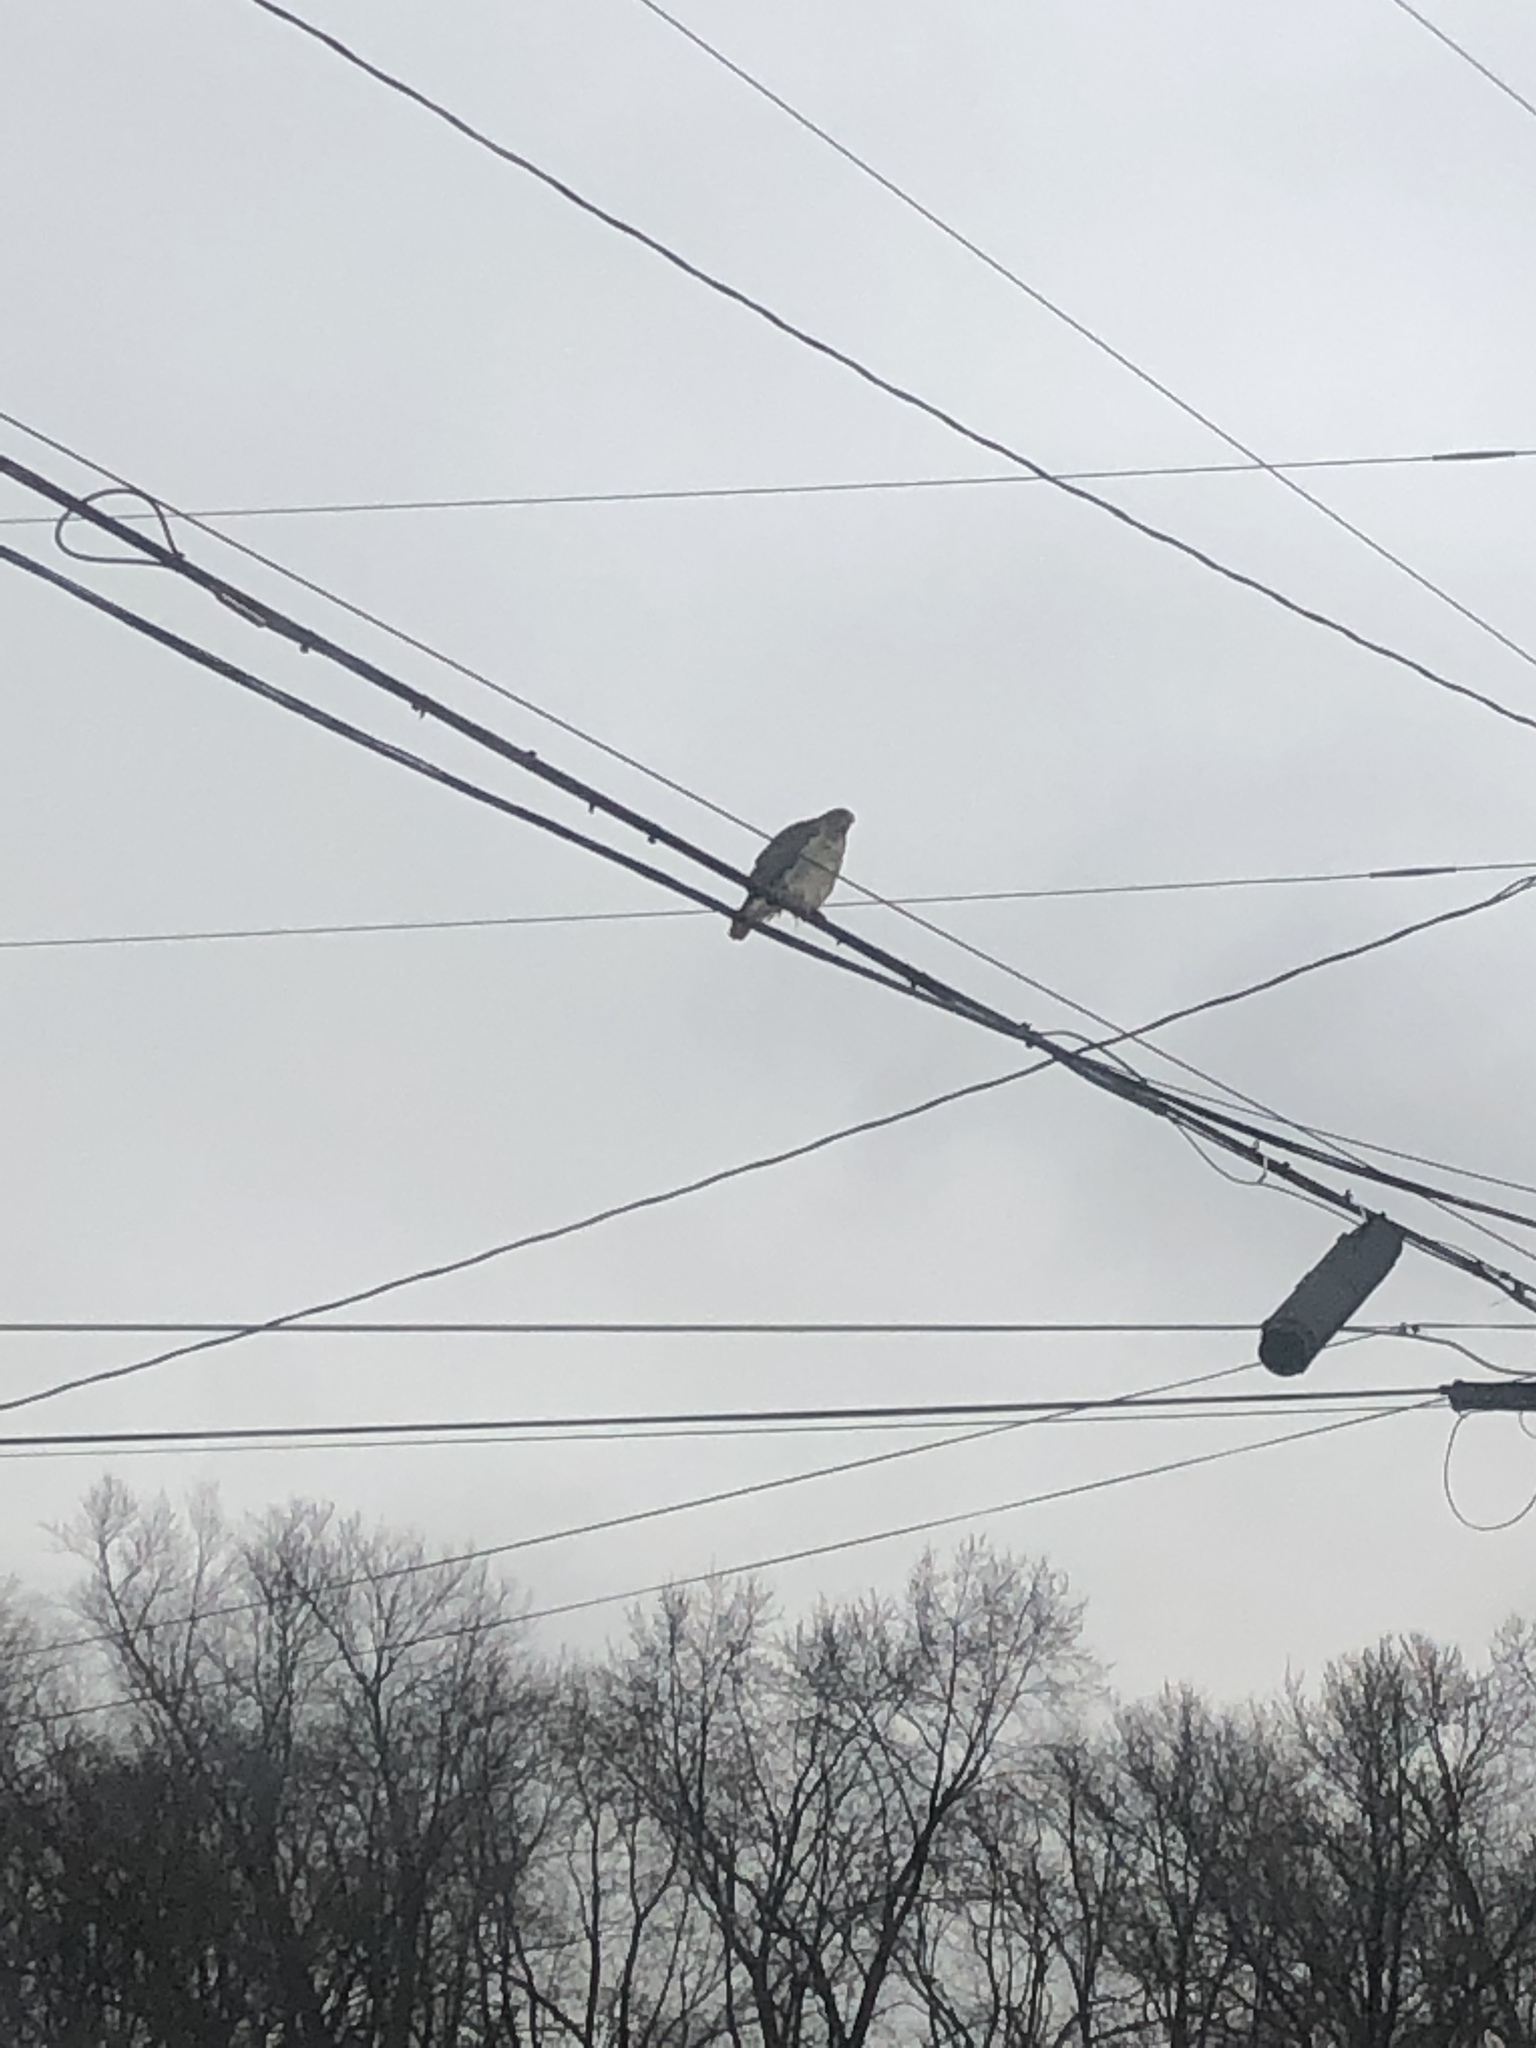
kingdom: Animalia
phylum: Chordata
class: Aves
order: Accipitriformes
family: Accipitridae
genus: Buteo
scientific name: Buteo jamaicensis
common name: Red-tailed hawk
